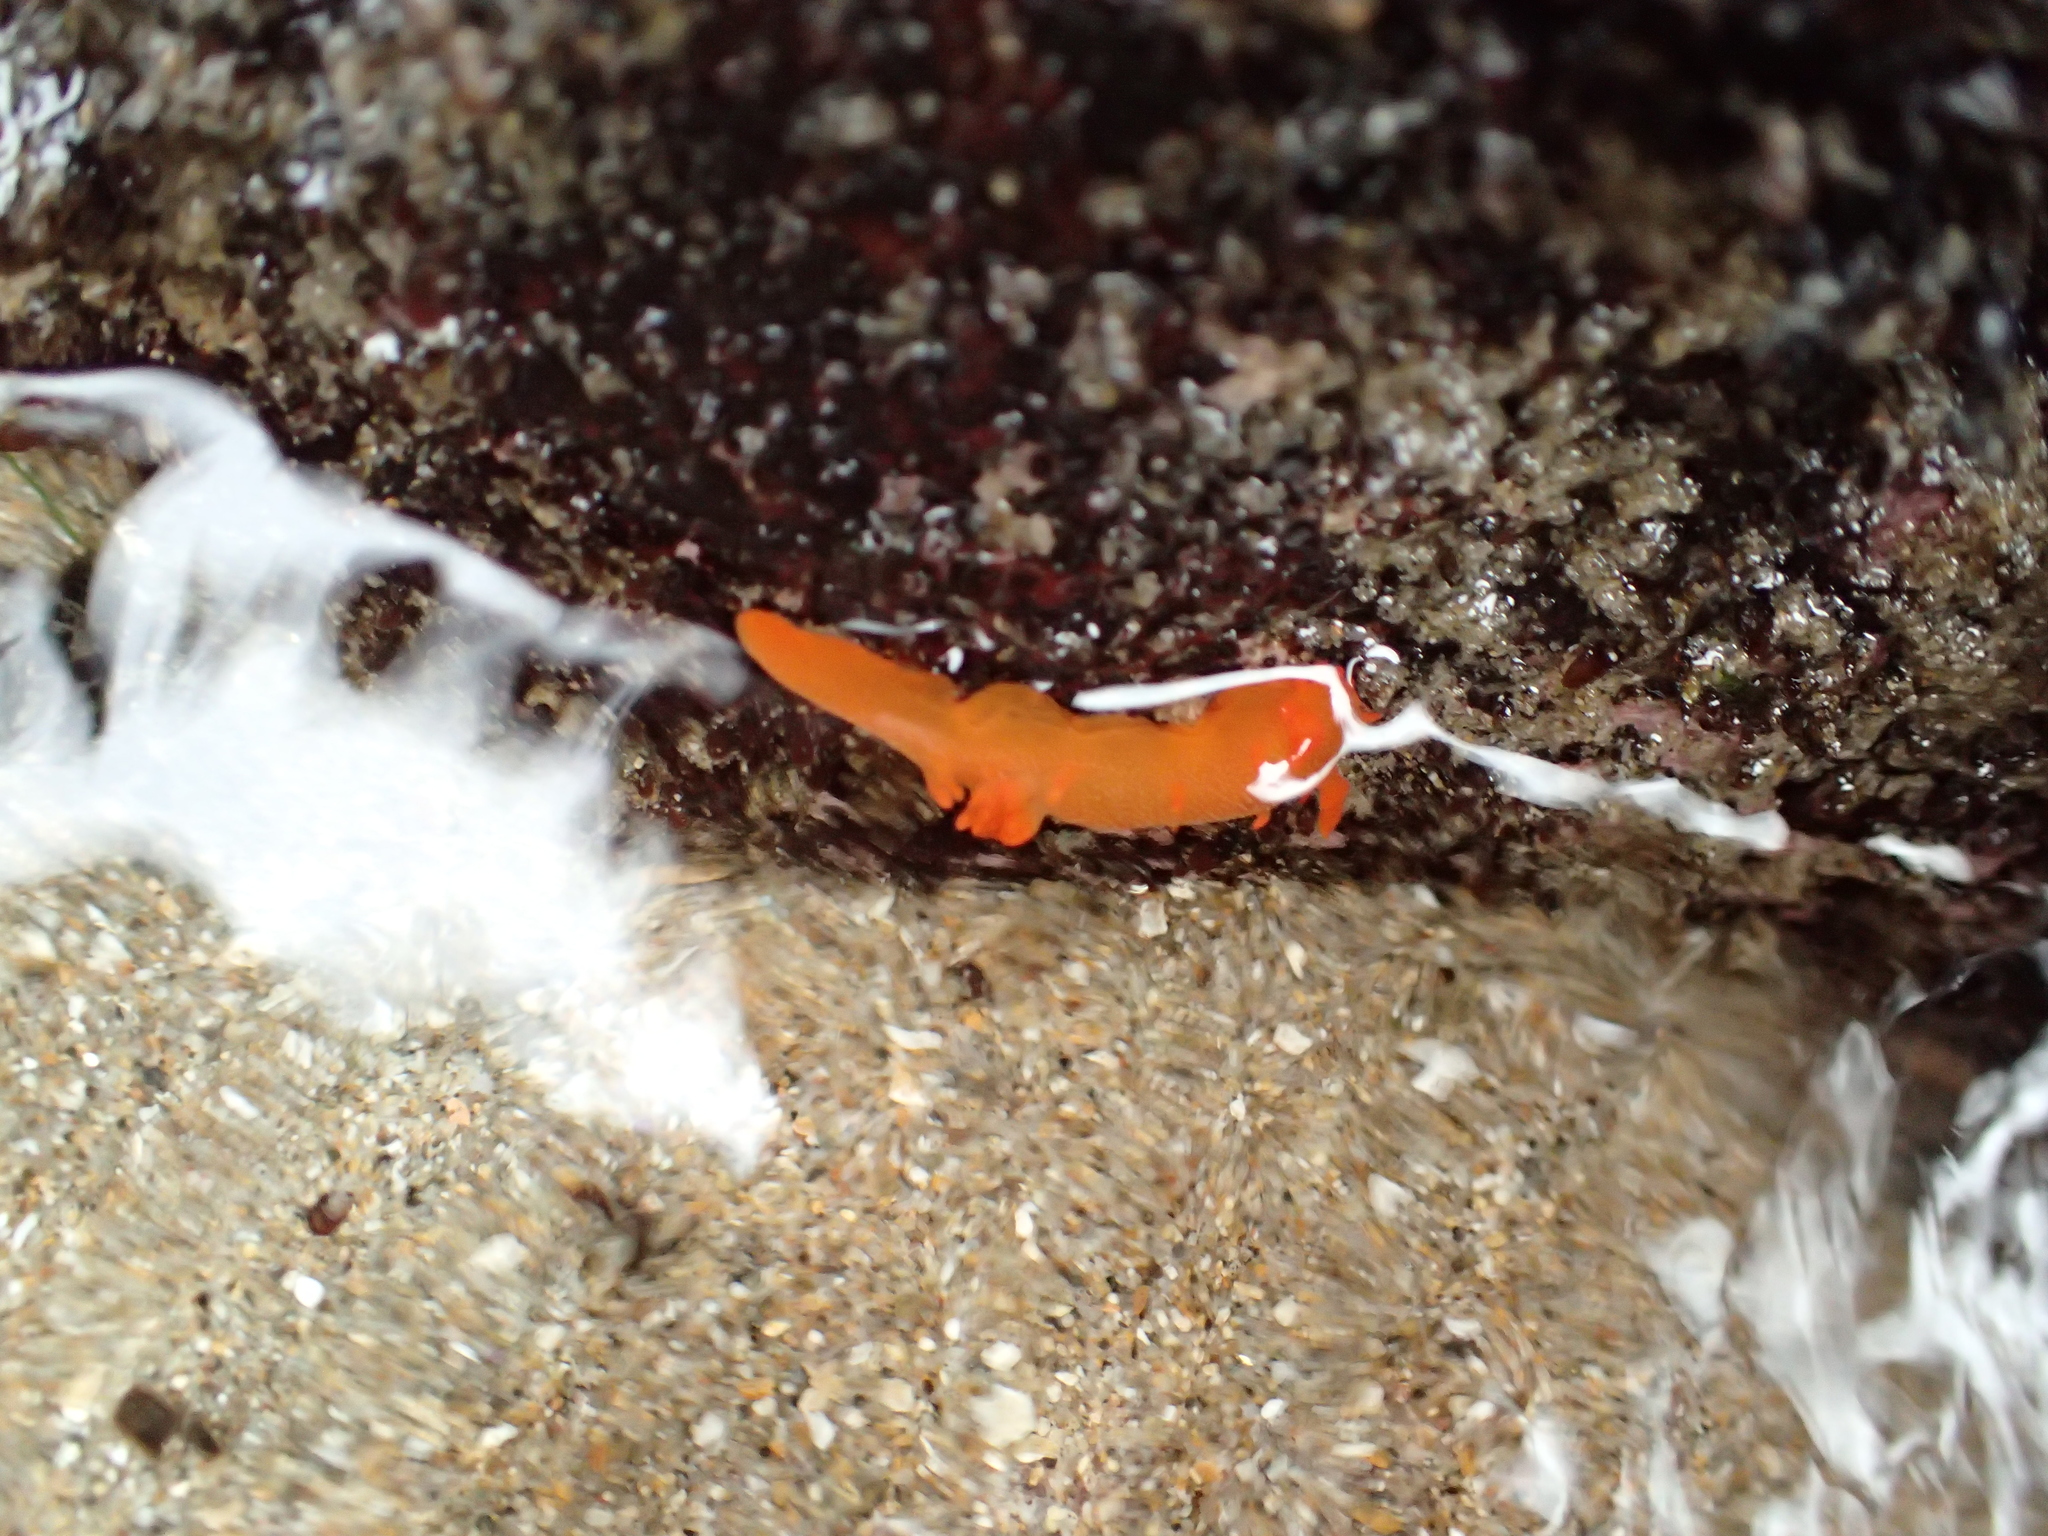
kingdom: Animalia
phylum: Mollusca
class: Gastropoda
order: Nudibranchia
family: Polyceridae
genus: Triopha
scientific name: Triopha maculata
